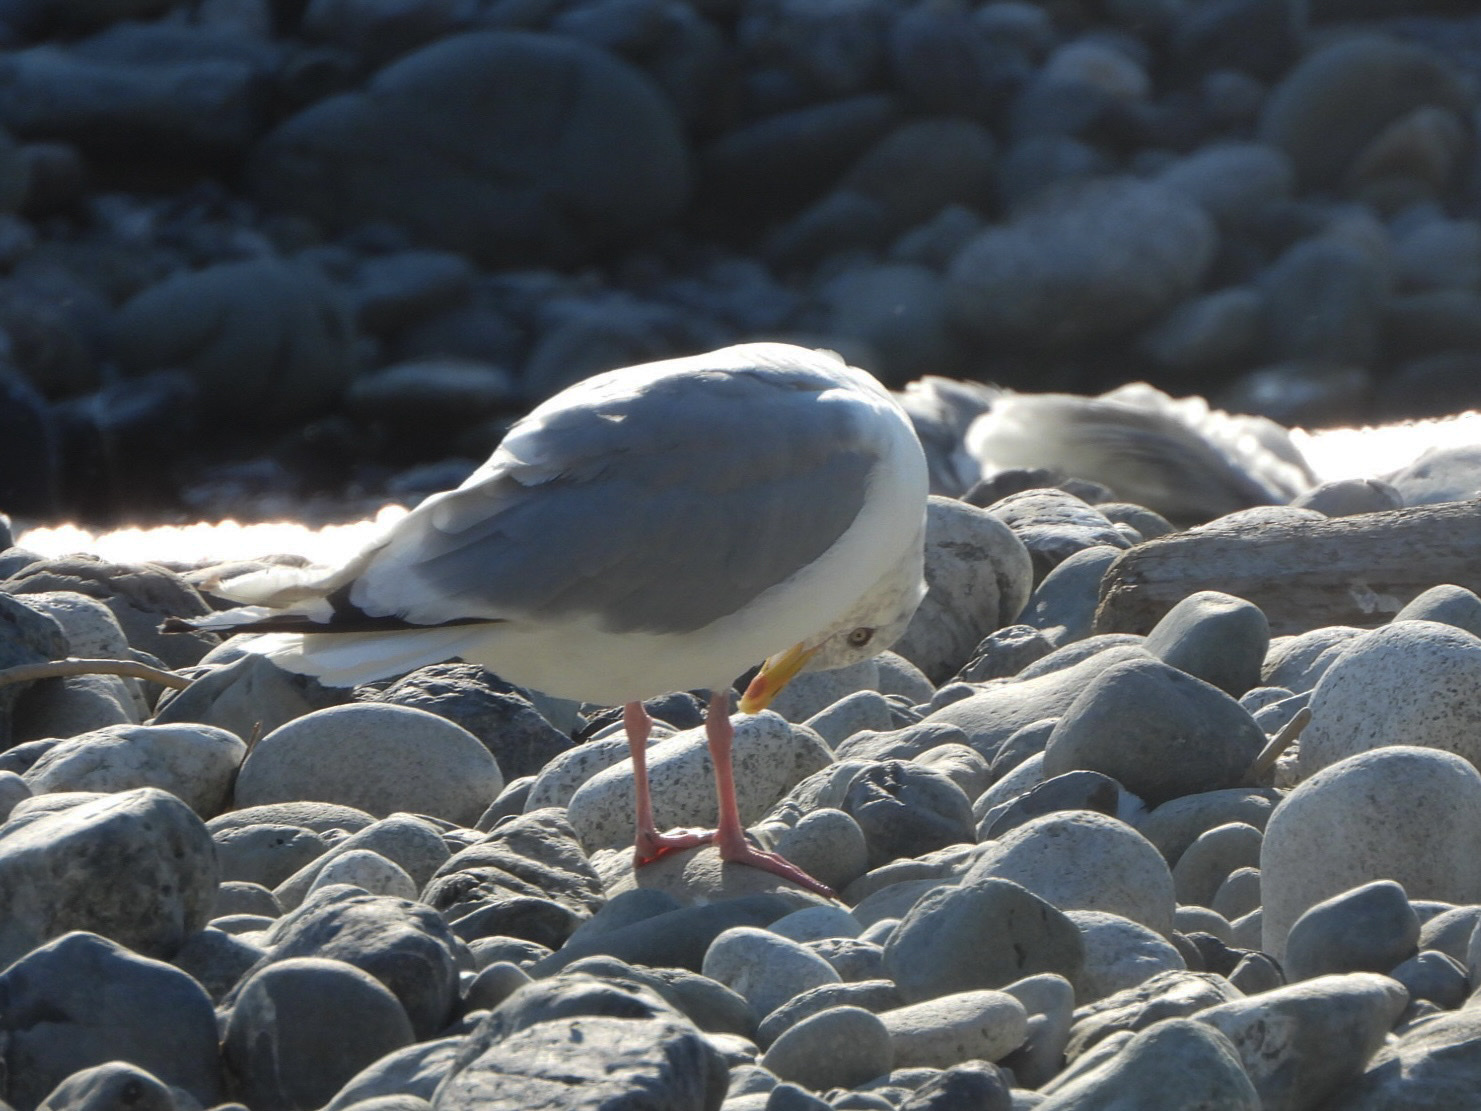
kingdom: Animalia
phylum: Chordata
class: Aves
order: Charadriiformes
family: Laridae
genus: Larus
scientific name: Larus
